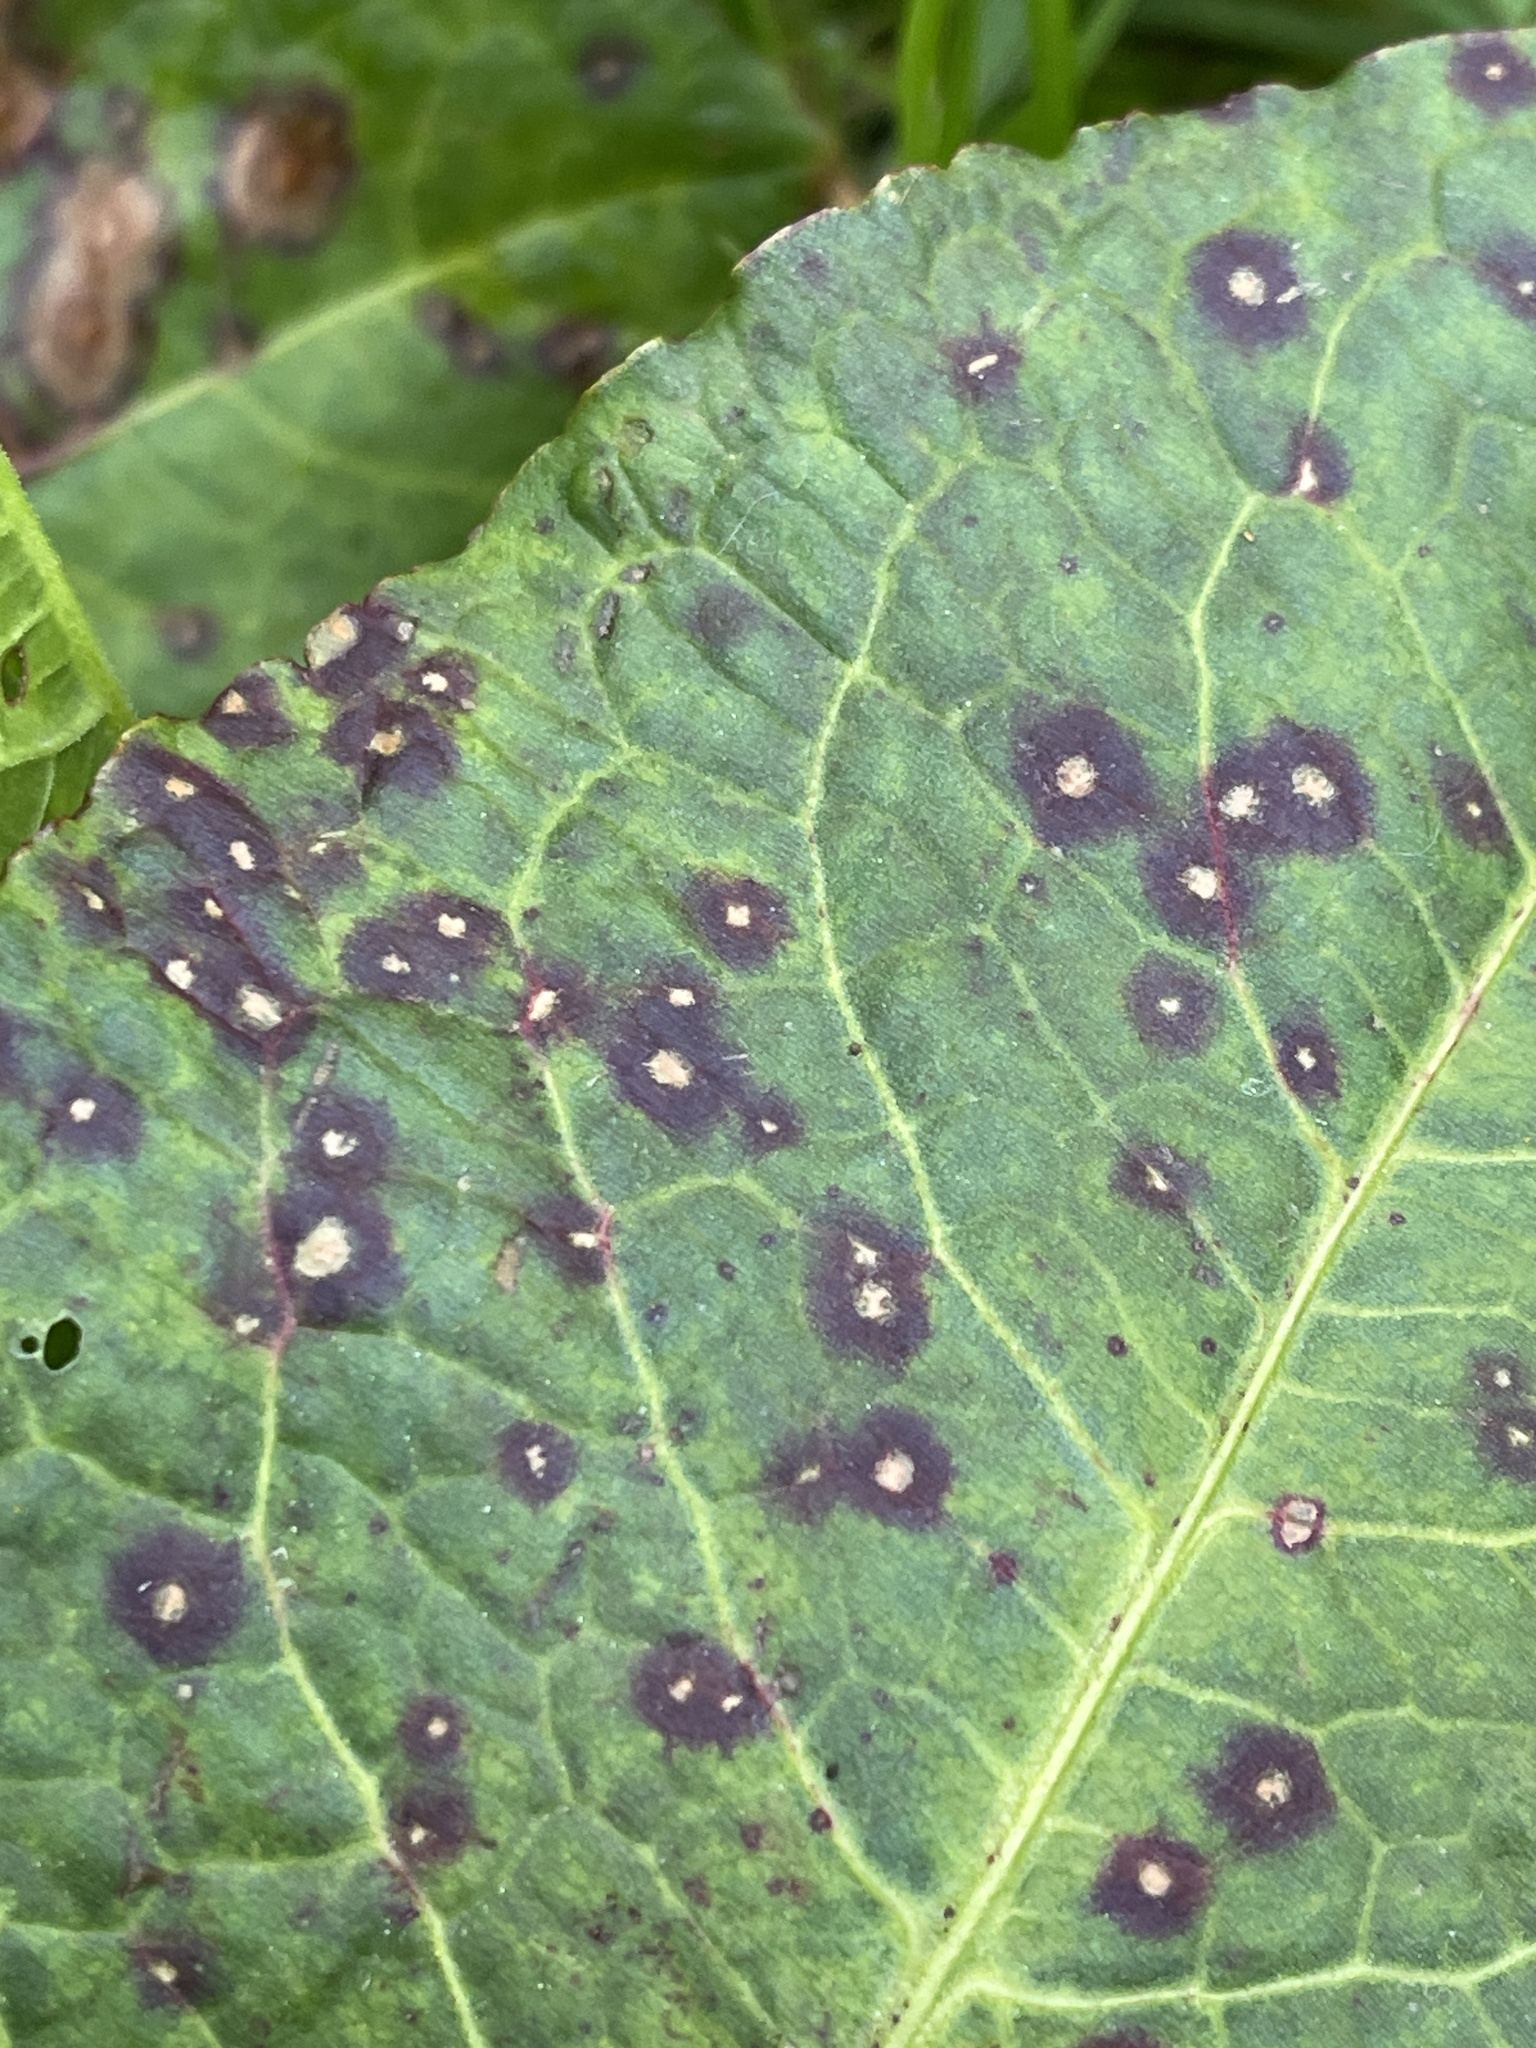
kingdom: Fungi
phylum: Ascomycota
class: Dothideomycetes
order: Mycosphaerellales
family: Mycosphaerellaceae
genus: Ramularia
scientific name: Ramularia rubella
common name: Red dock spot
